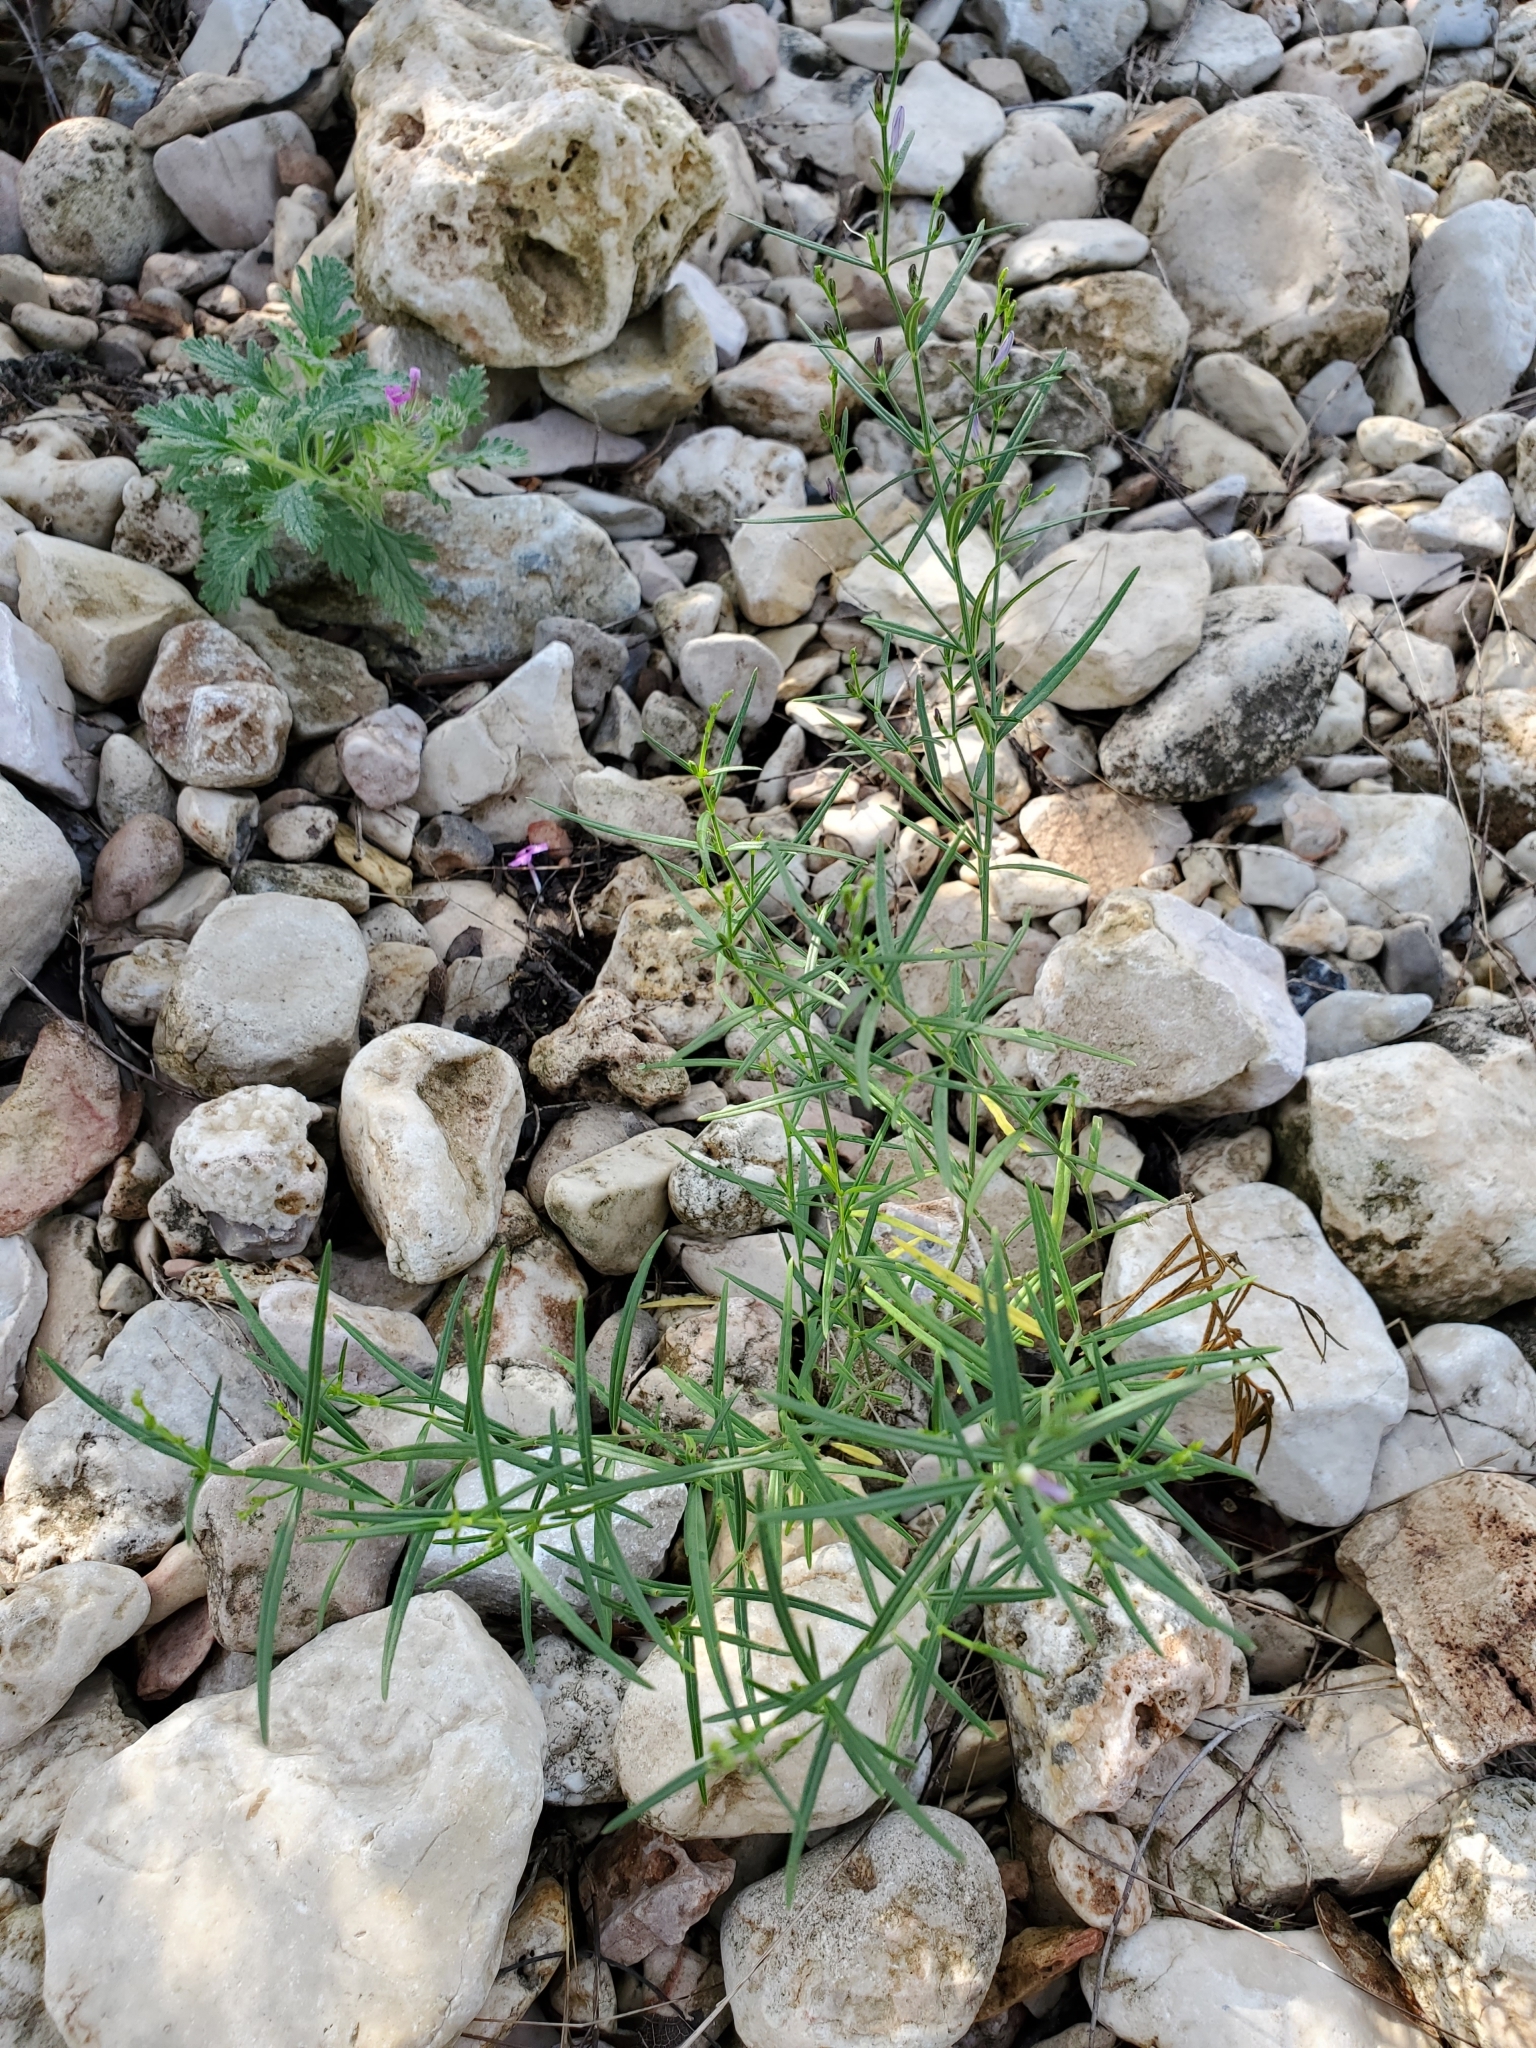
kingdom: Plantae
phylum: Tracheophyta
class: Magnoliopsida
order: Lamiales
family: Acanthaceae
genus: Carlowrightia
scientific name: Carlowrightia linearifolia
